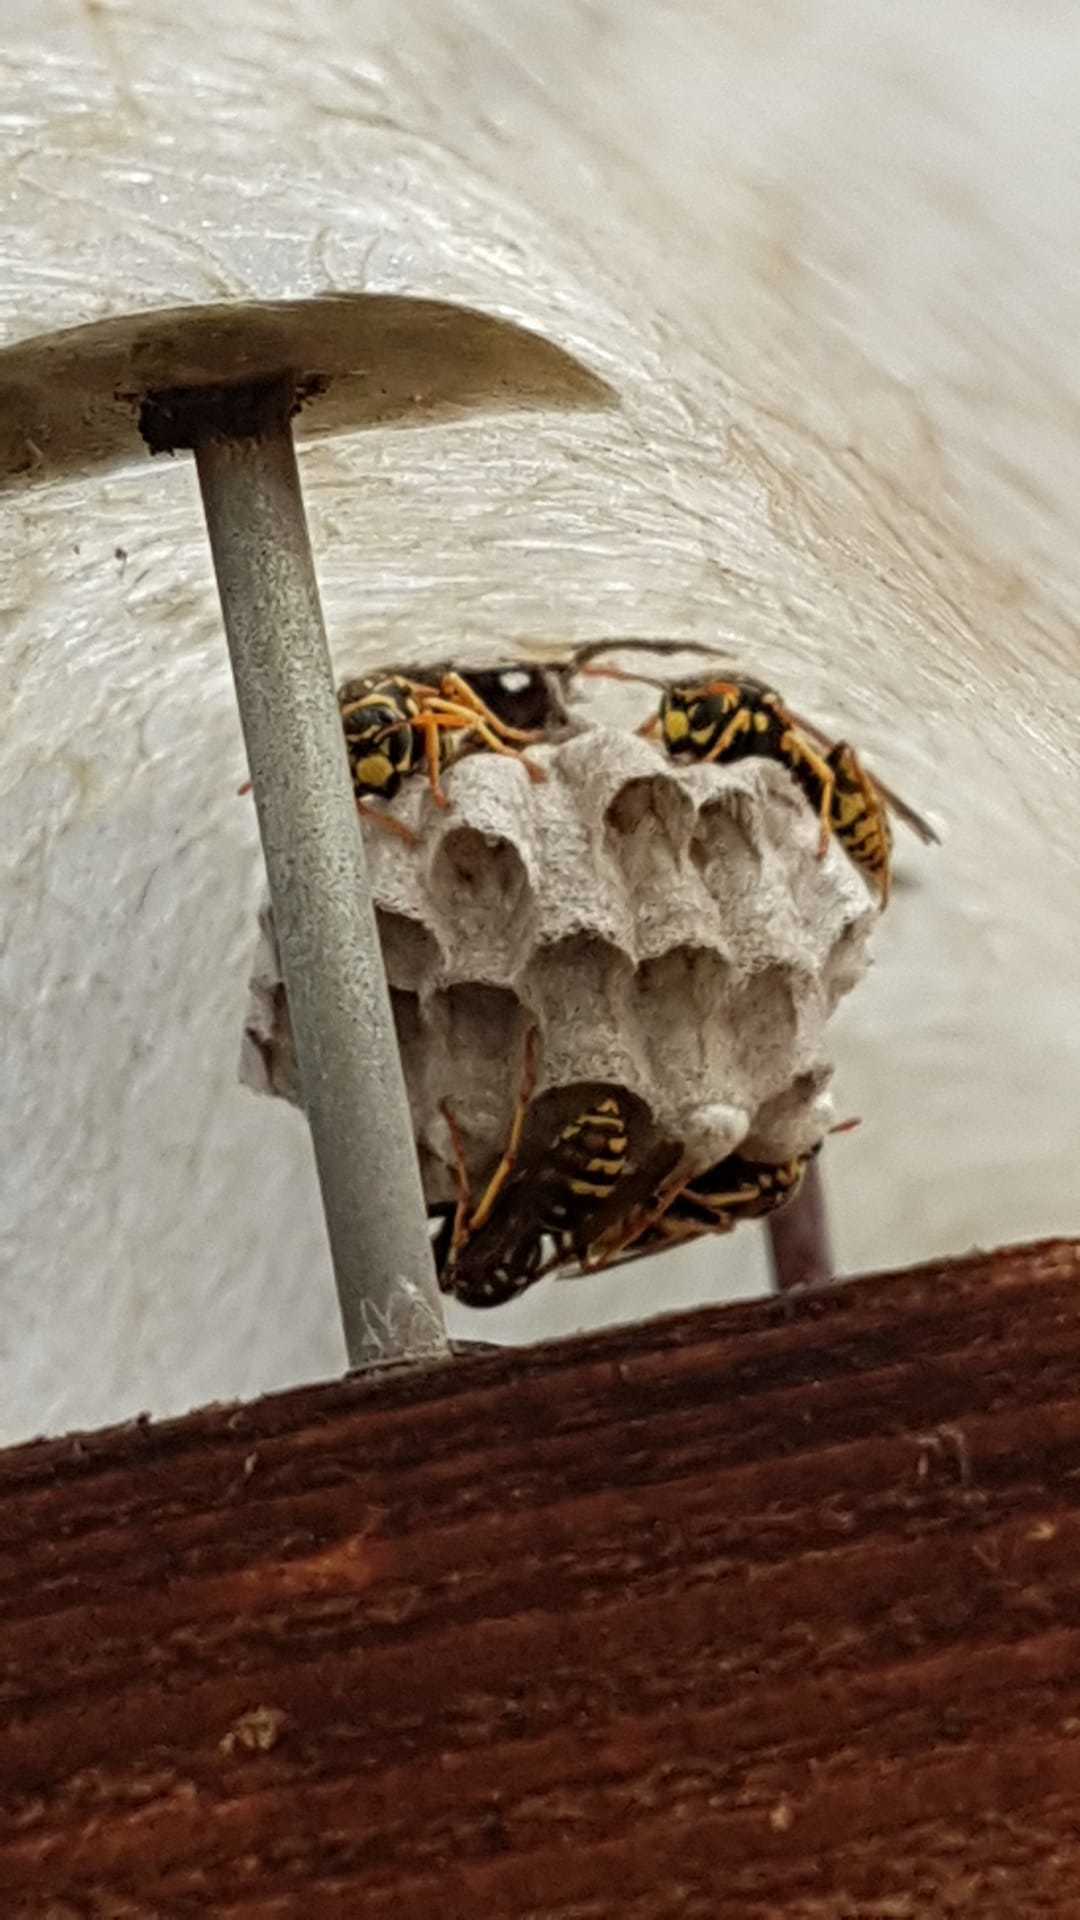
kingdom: Animalia
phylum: Arthropoda
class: Insecta
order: Hymenoptera
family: Eumenidae
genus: Polistes
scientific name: Polistes dominula
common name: Paper wasp
